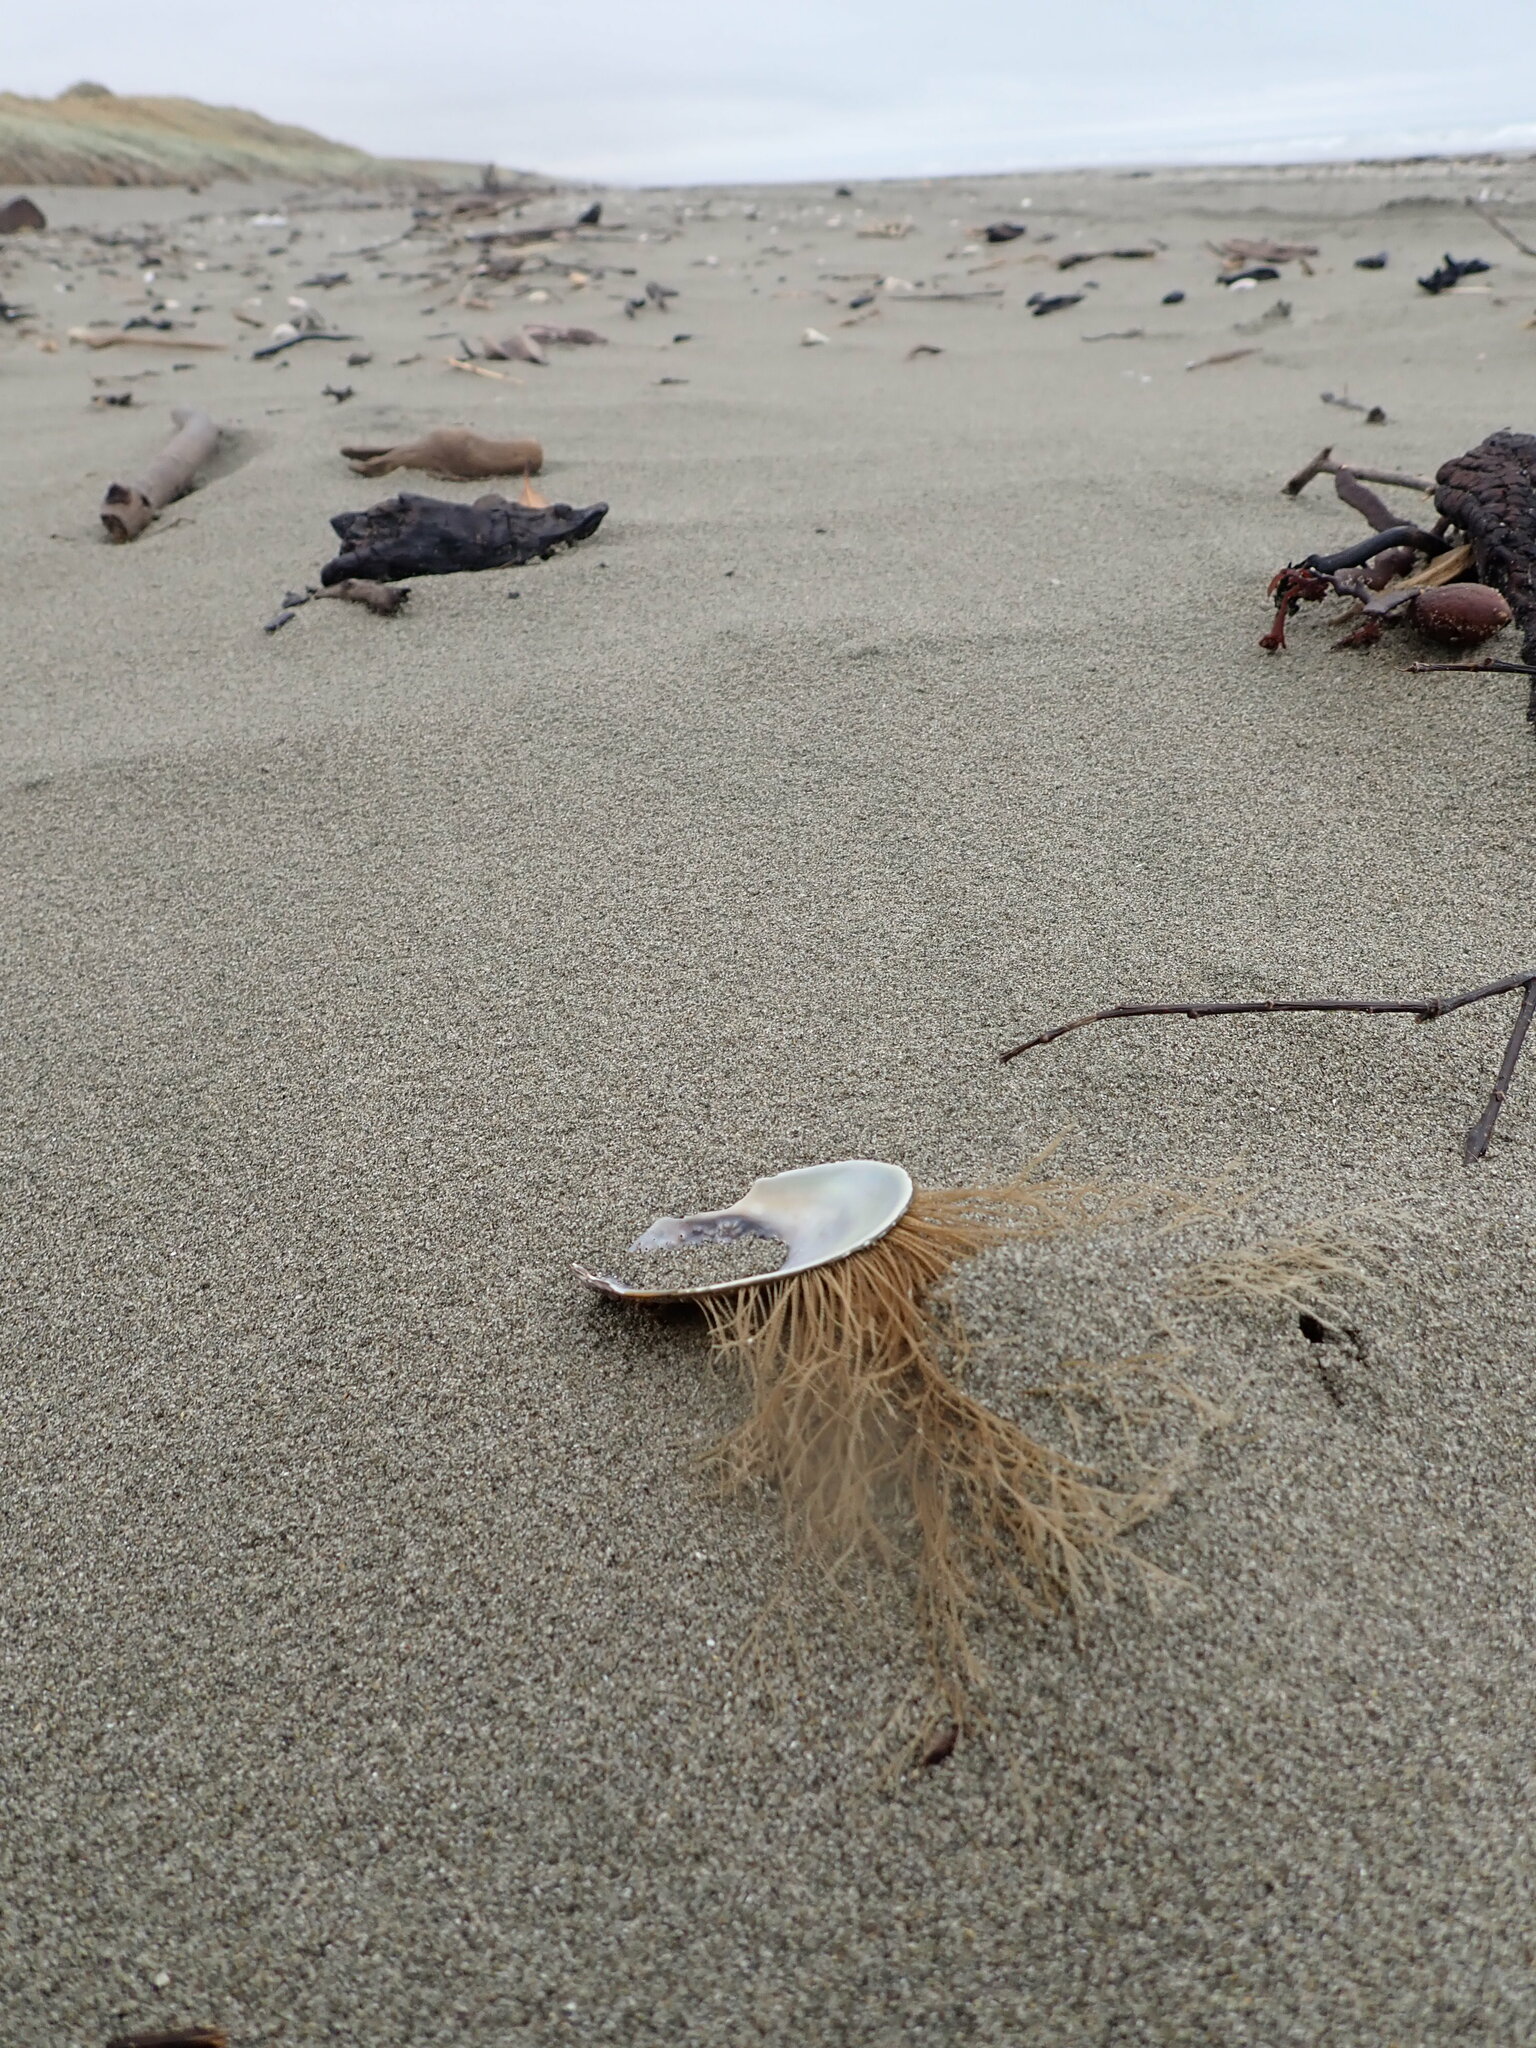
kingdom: Animalia
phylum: Cnidaria
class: Hydrozoa
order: Leptothecata
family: Sertulariidae
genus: Amphisbetia
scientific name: Amphisbetia bispinosa
